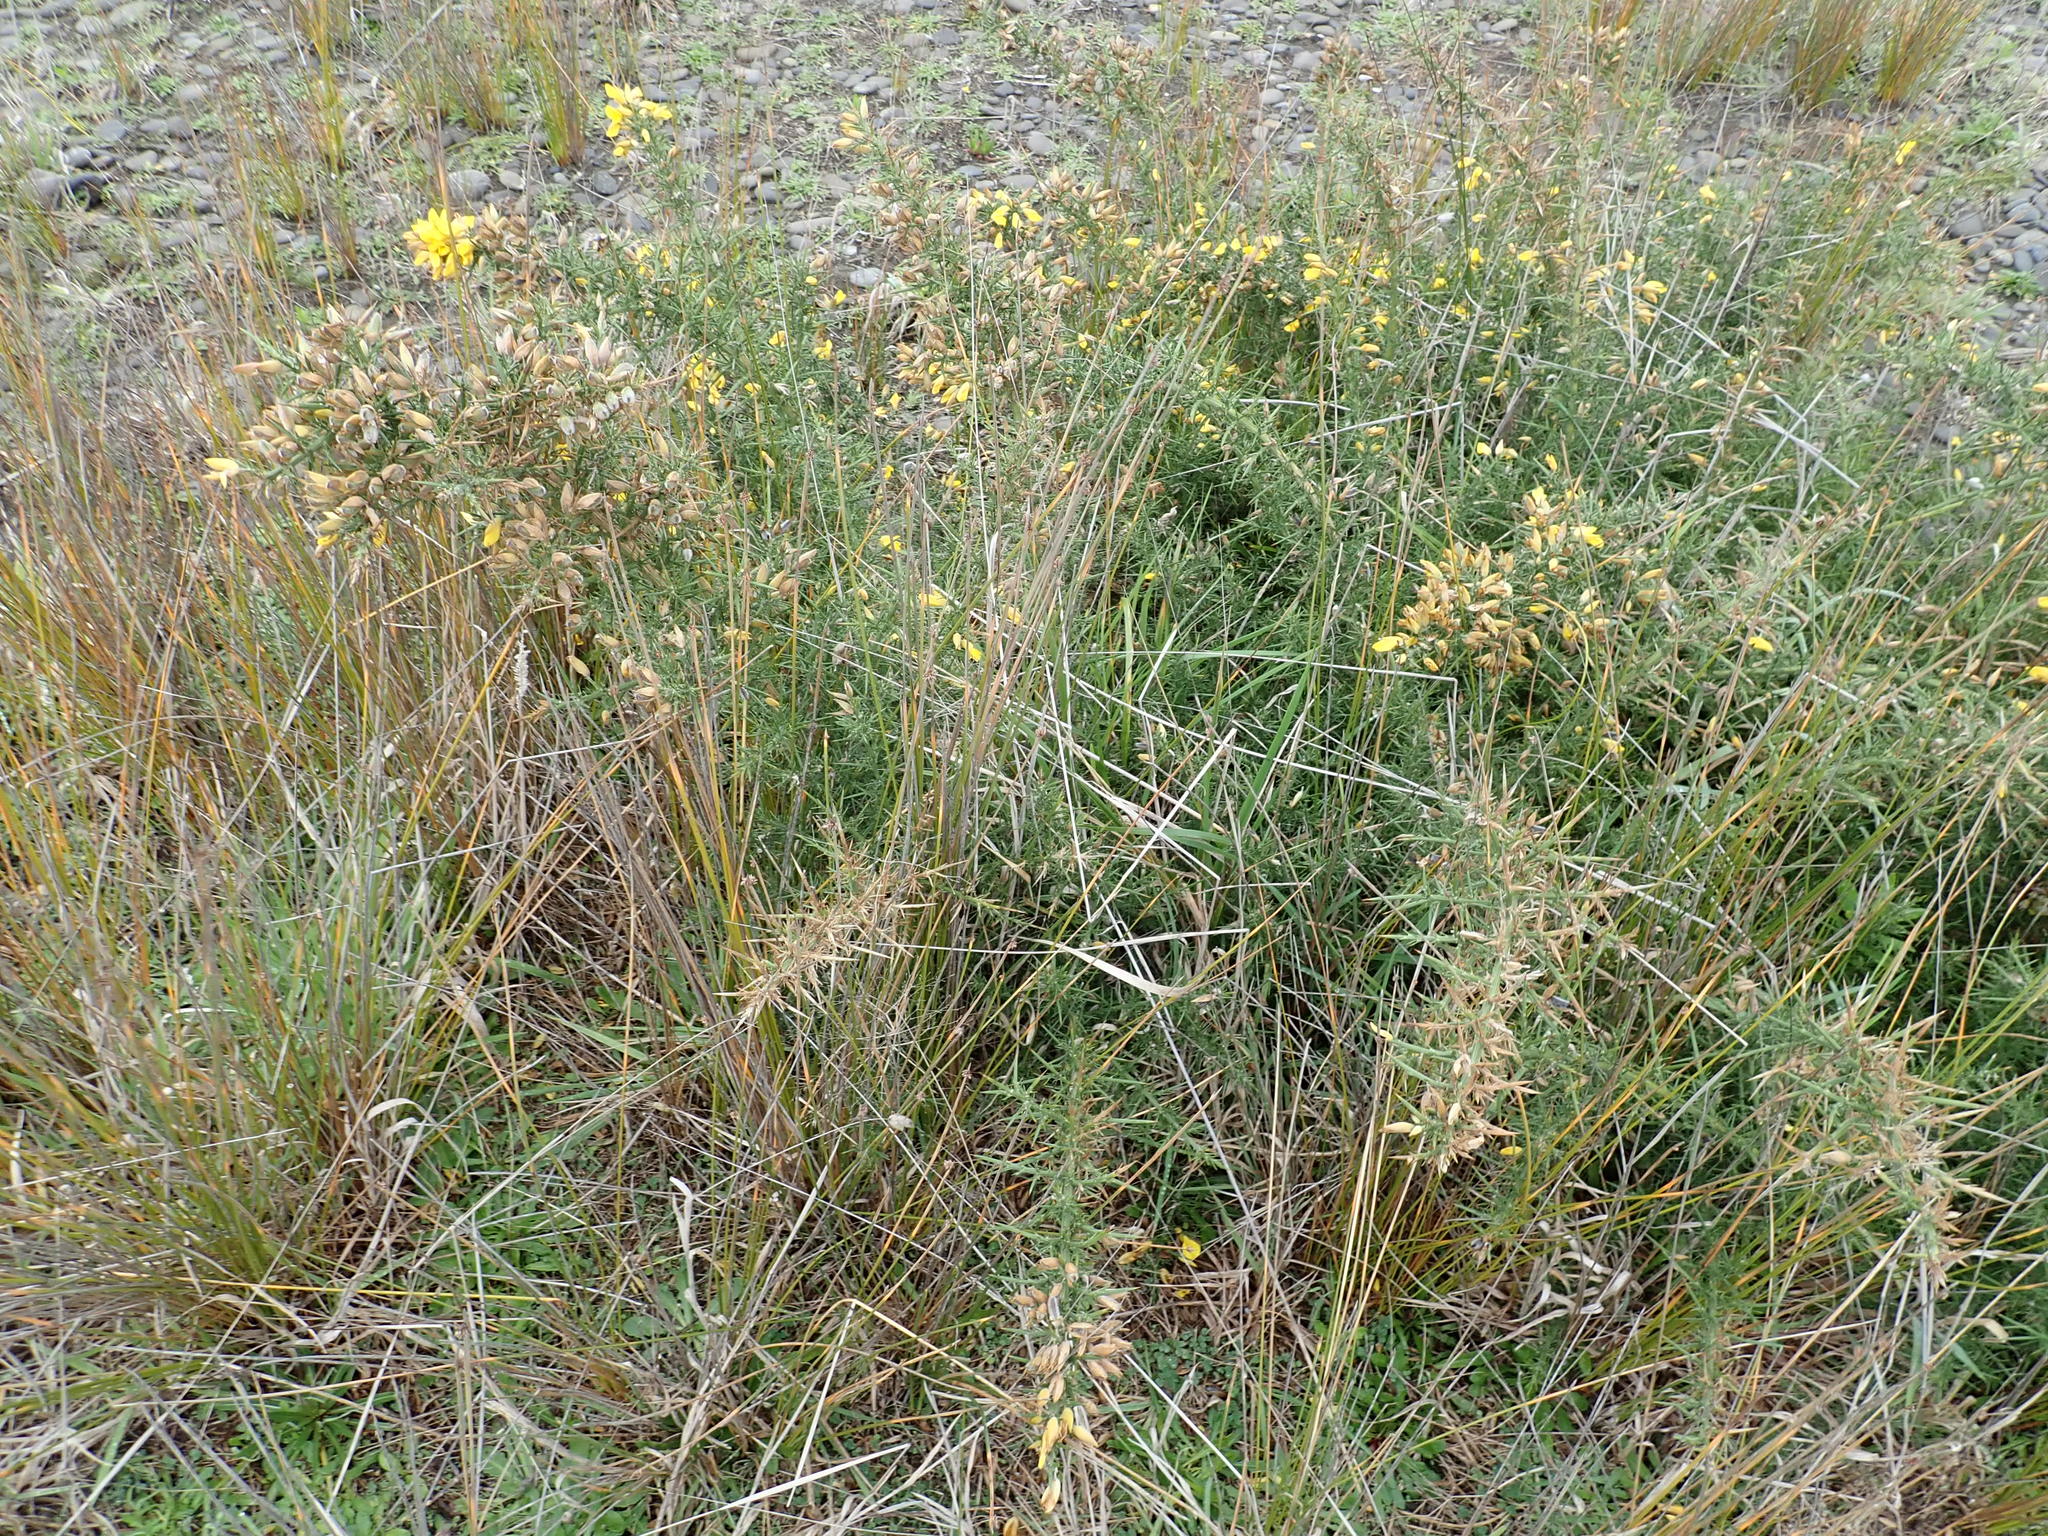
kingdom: Plantae
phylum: Tracheophyta
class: Magnoliopsida
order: Fabales
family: Fabaceae
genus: Ulex
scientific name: Ulex europaeus
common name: Common gorse
